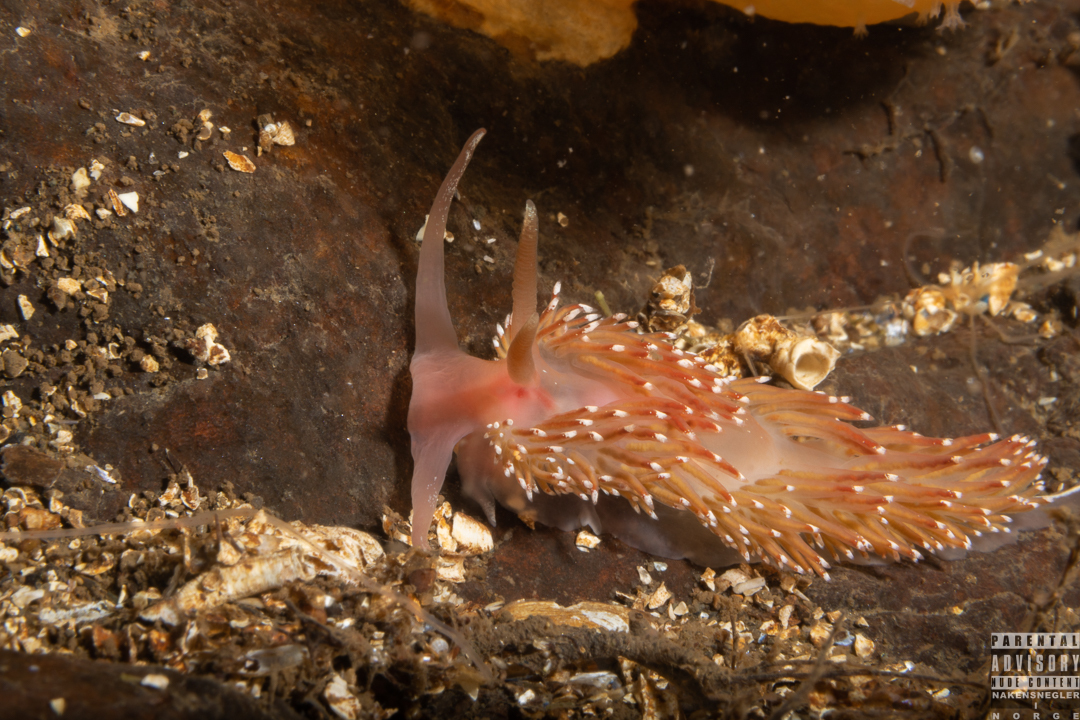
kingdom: Animalia
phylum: Mollusca
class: Gastropoda
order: Nudibranchia
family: Facelinidae
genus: Facelina
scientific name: Facelina bostoniensis
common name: Boston facelina
